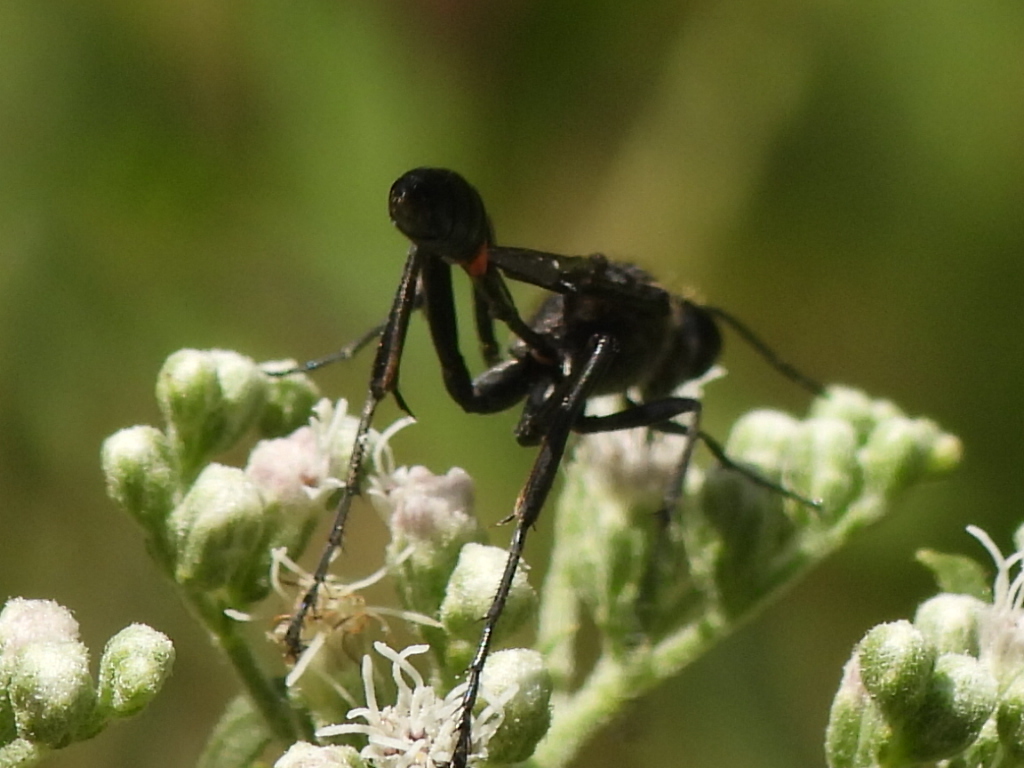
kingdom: Animalia
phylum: Arthropoda
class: Insecta
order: Hymenoptera
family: Sphecidae
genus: Ammophila
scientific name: Ammophila procera
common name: Common thread-waisted wasp
